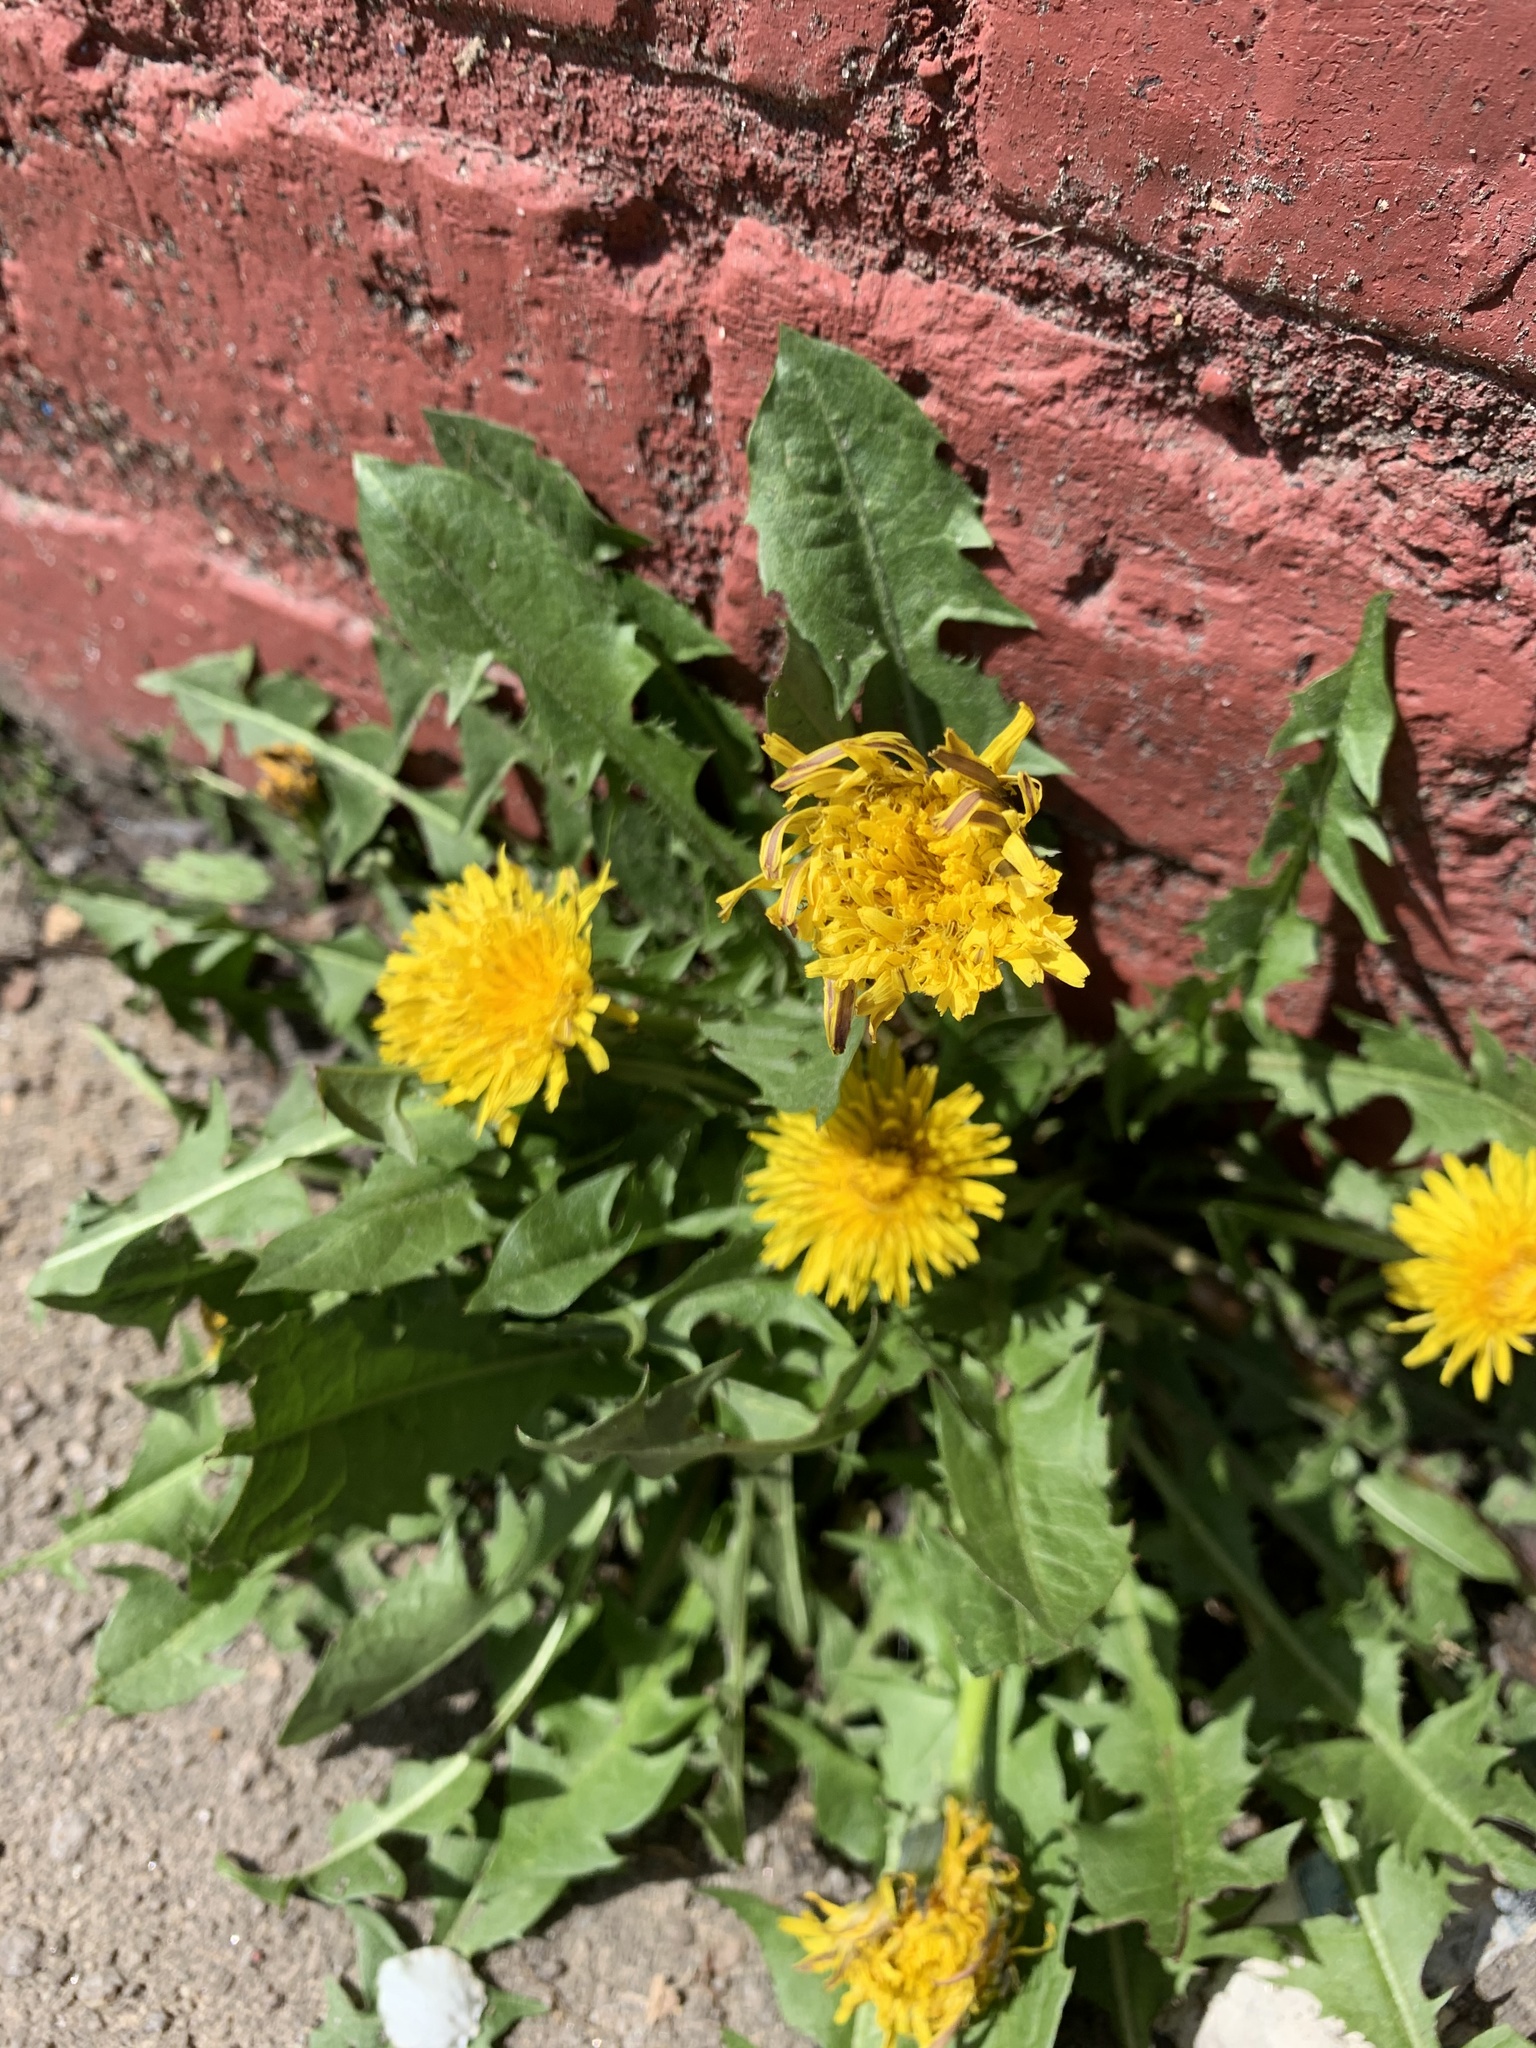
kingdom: Plantae
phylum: Tracheophyta
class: Magnoliopsida
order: Asterales
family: Asteraceae
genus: Taraxacum
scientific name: Taraxacum officinale
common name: Common dandelion
